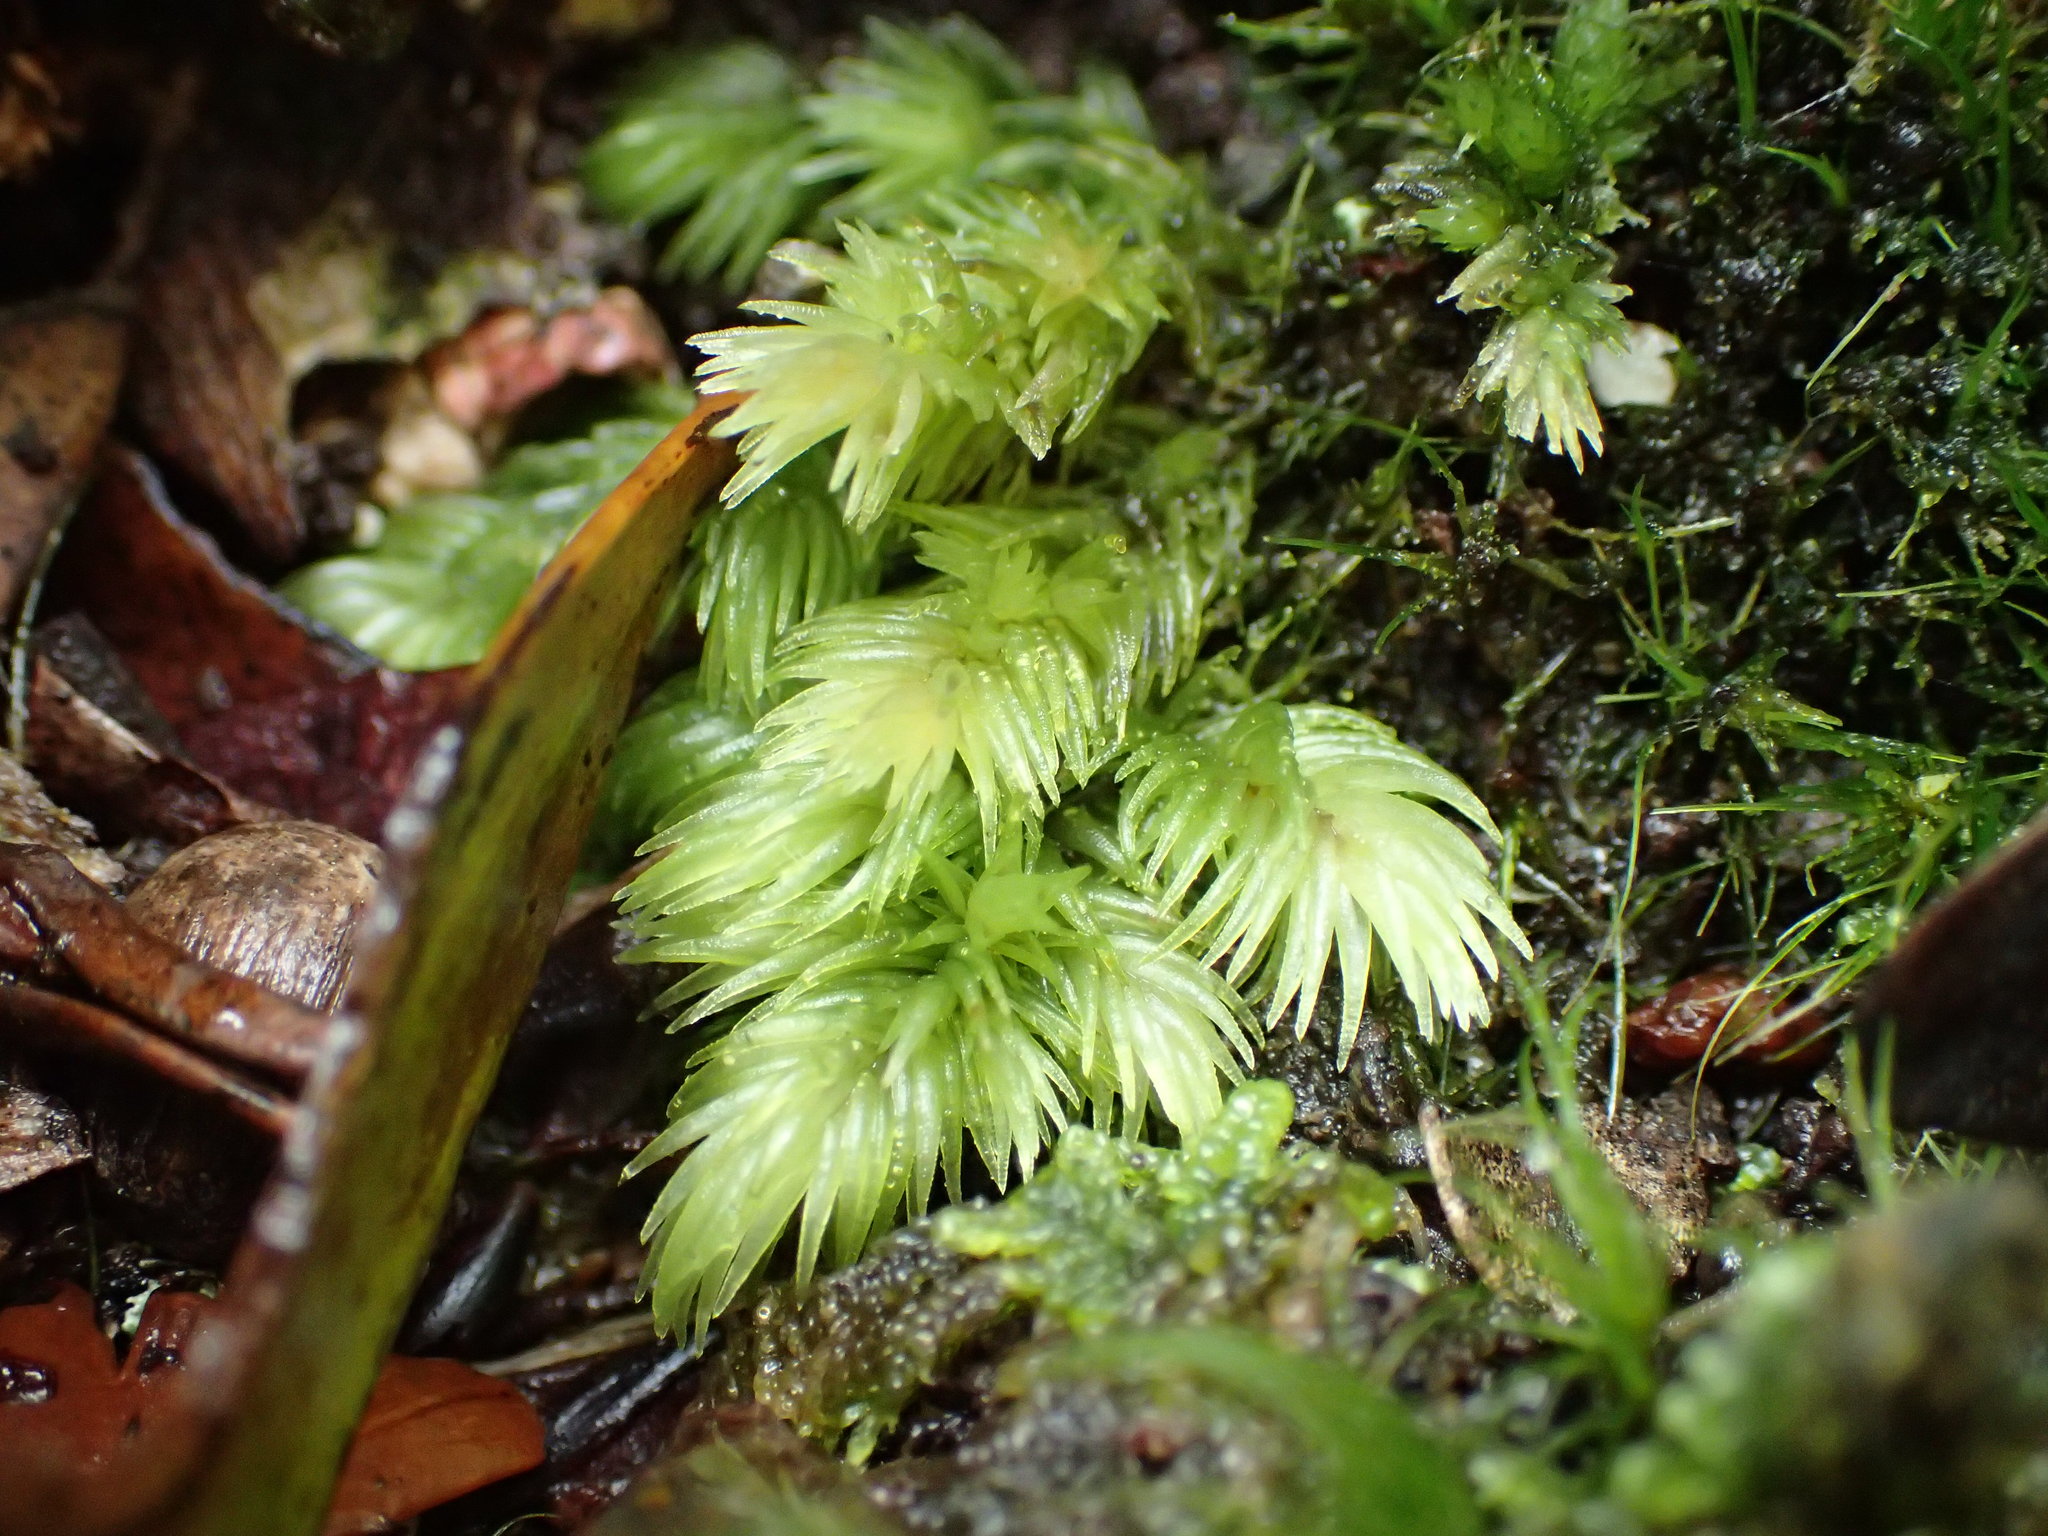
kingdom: Plantae
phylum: Bryophyta
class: Bryopsida
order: Dicranales
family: Leucobryaceae
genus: Leucobryum
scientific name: Leucobryum javense
